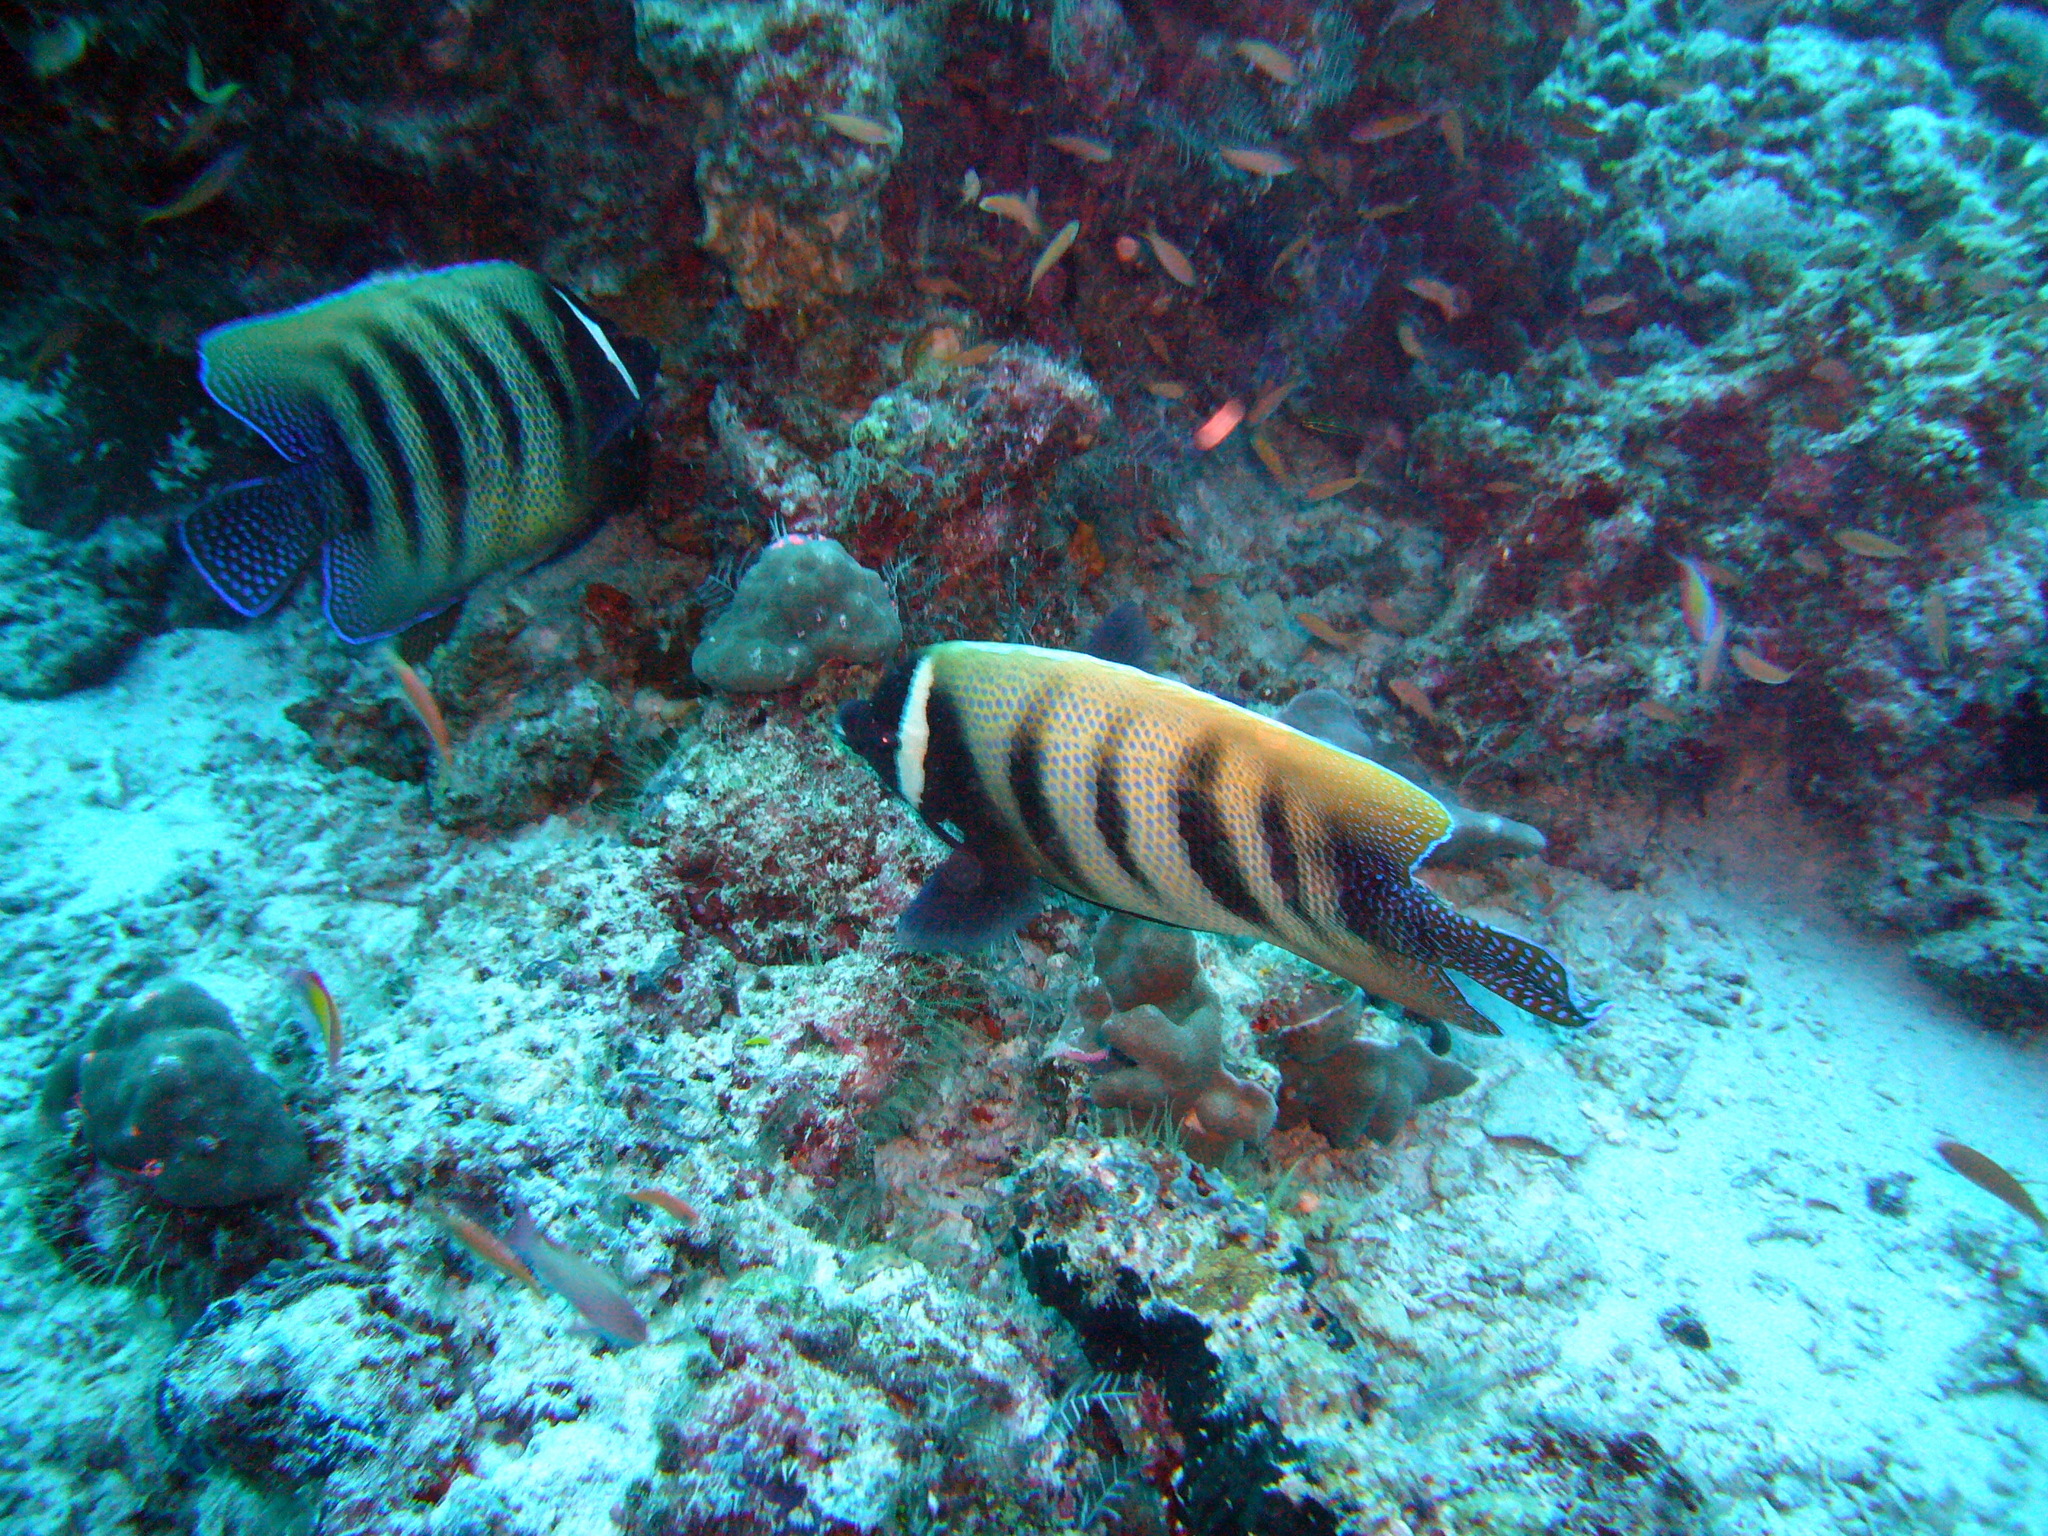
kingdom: Animalia
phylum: Chordata
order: Perciformes
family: Pomacanthidae
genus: Pomacanthus
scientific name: Pomacanthus sexstriatus
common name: Six-banded angelfish
